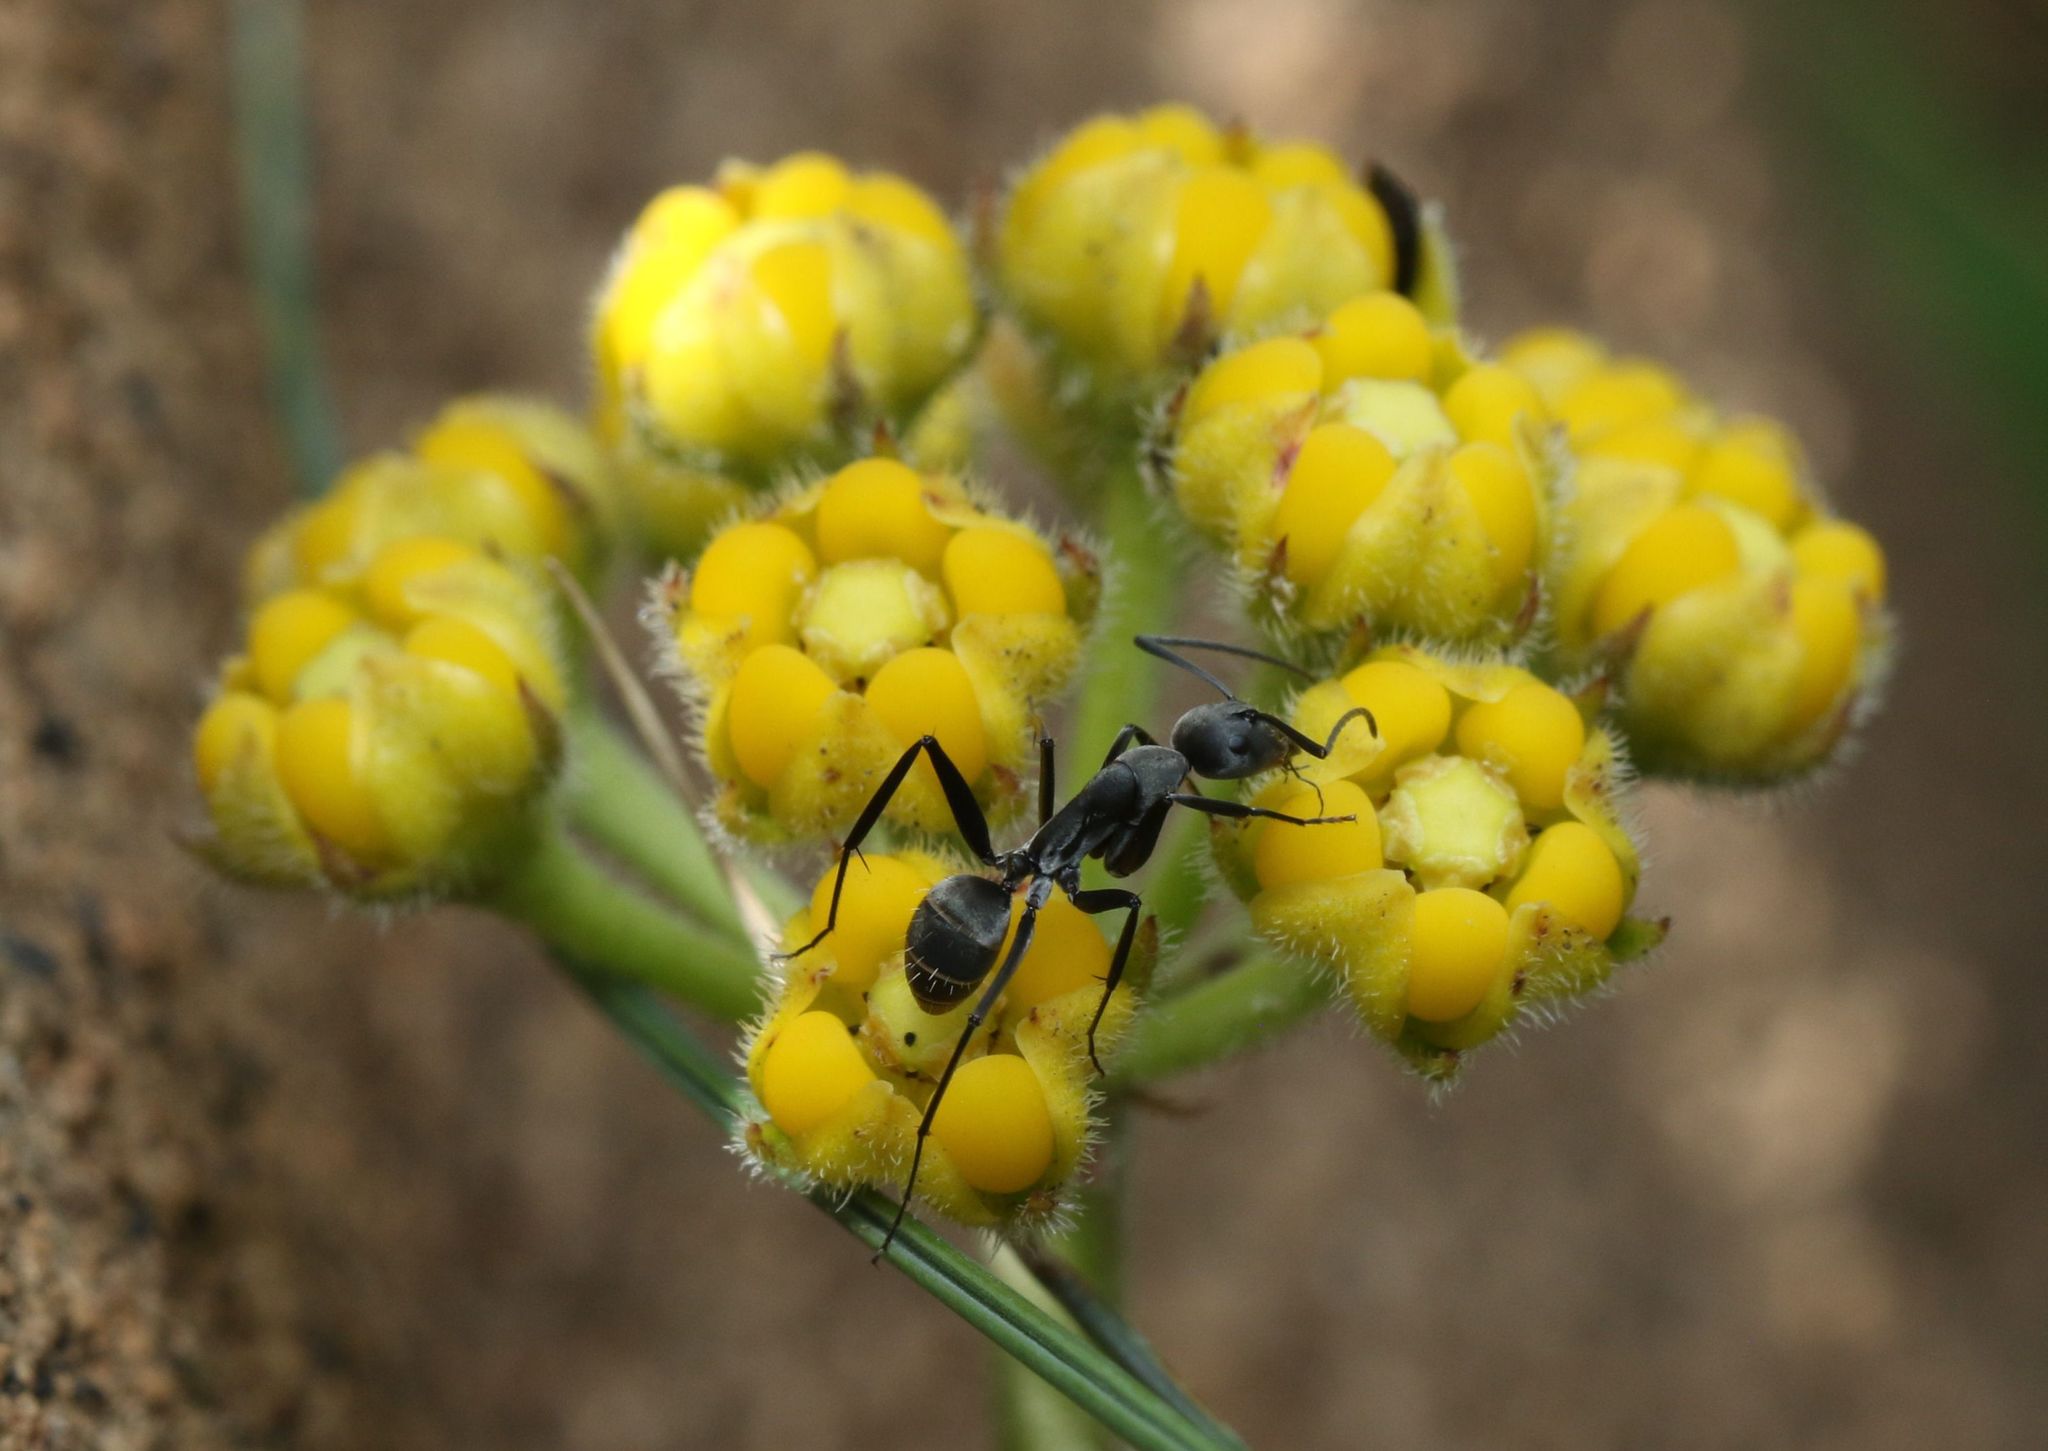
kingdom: Plantae
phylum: Tracheophyta
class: Magnoliopsida
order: Gentianales
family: Apocynaceae
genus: Xysmalobium
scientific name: Xysmalobium tysonianum
